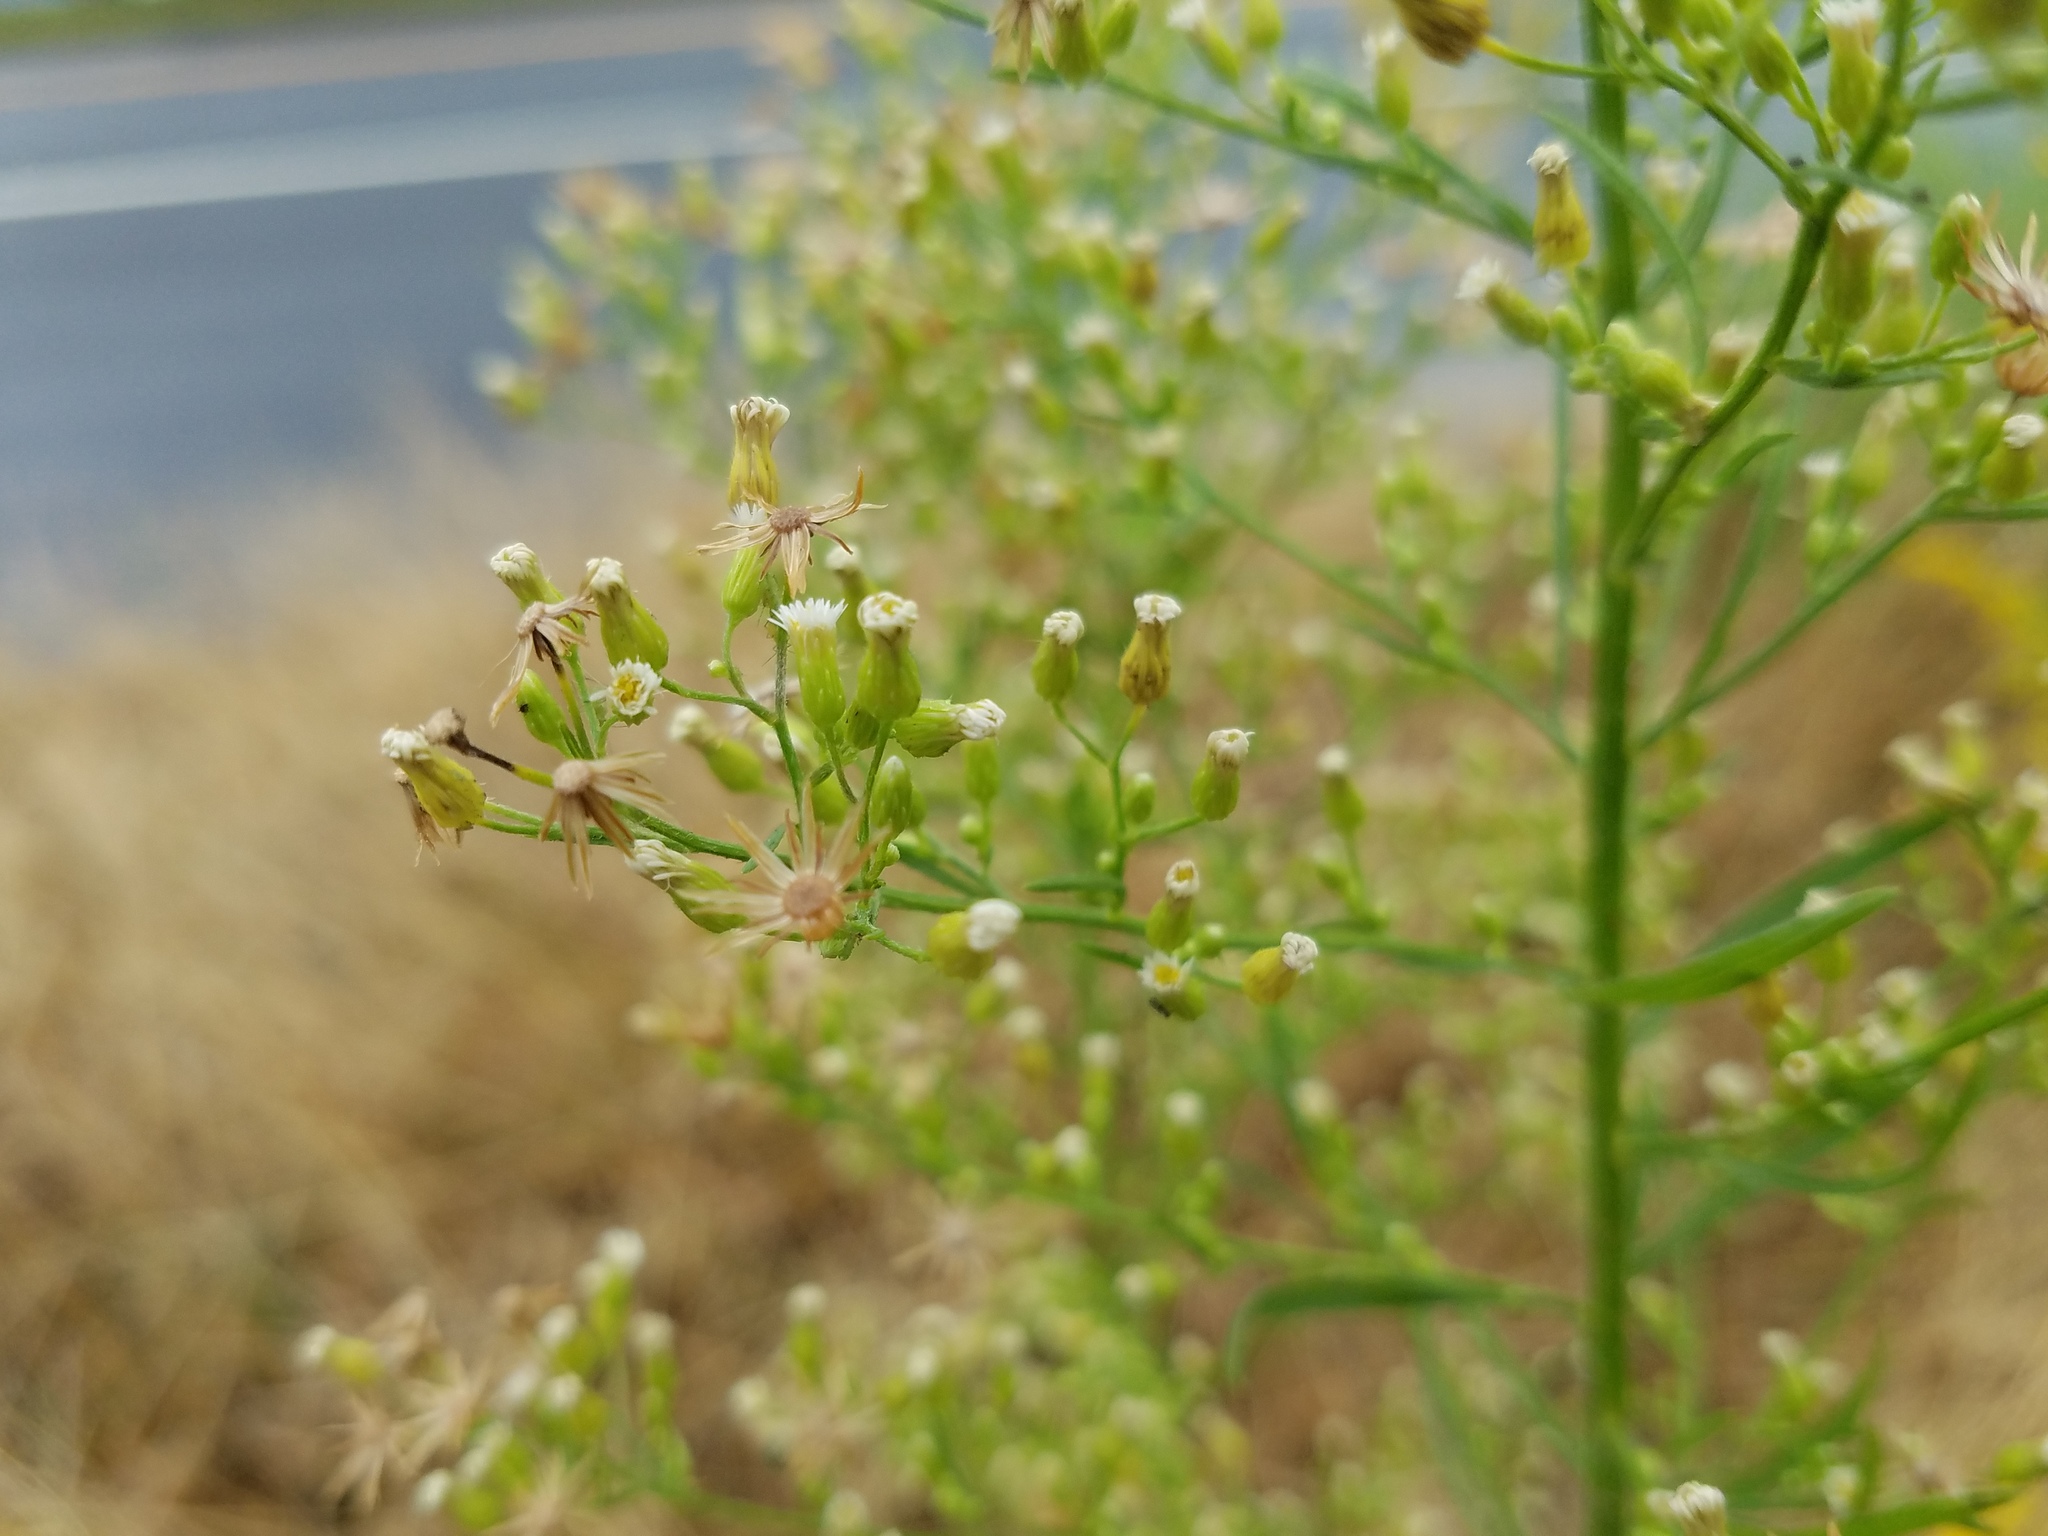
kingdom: Plantae
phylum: Tracheophyta
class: Magnoliopsida
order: Asterales
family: Asteraceae
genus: Erigeron
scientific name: Erigeron canadensis
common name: Canadian fleabane
